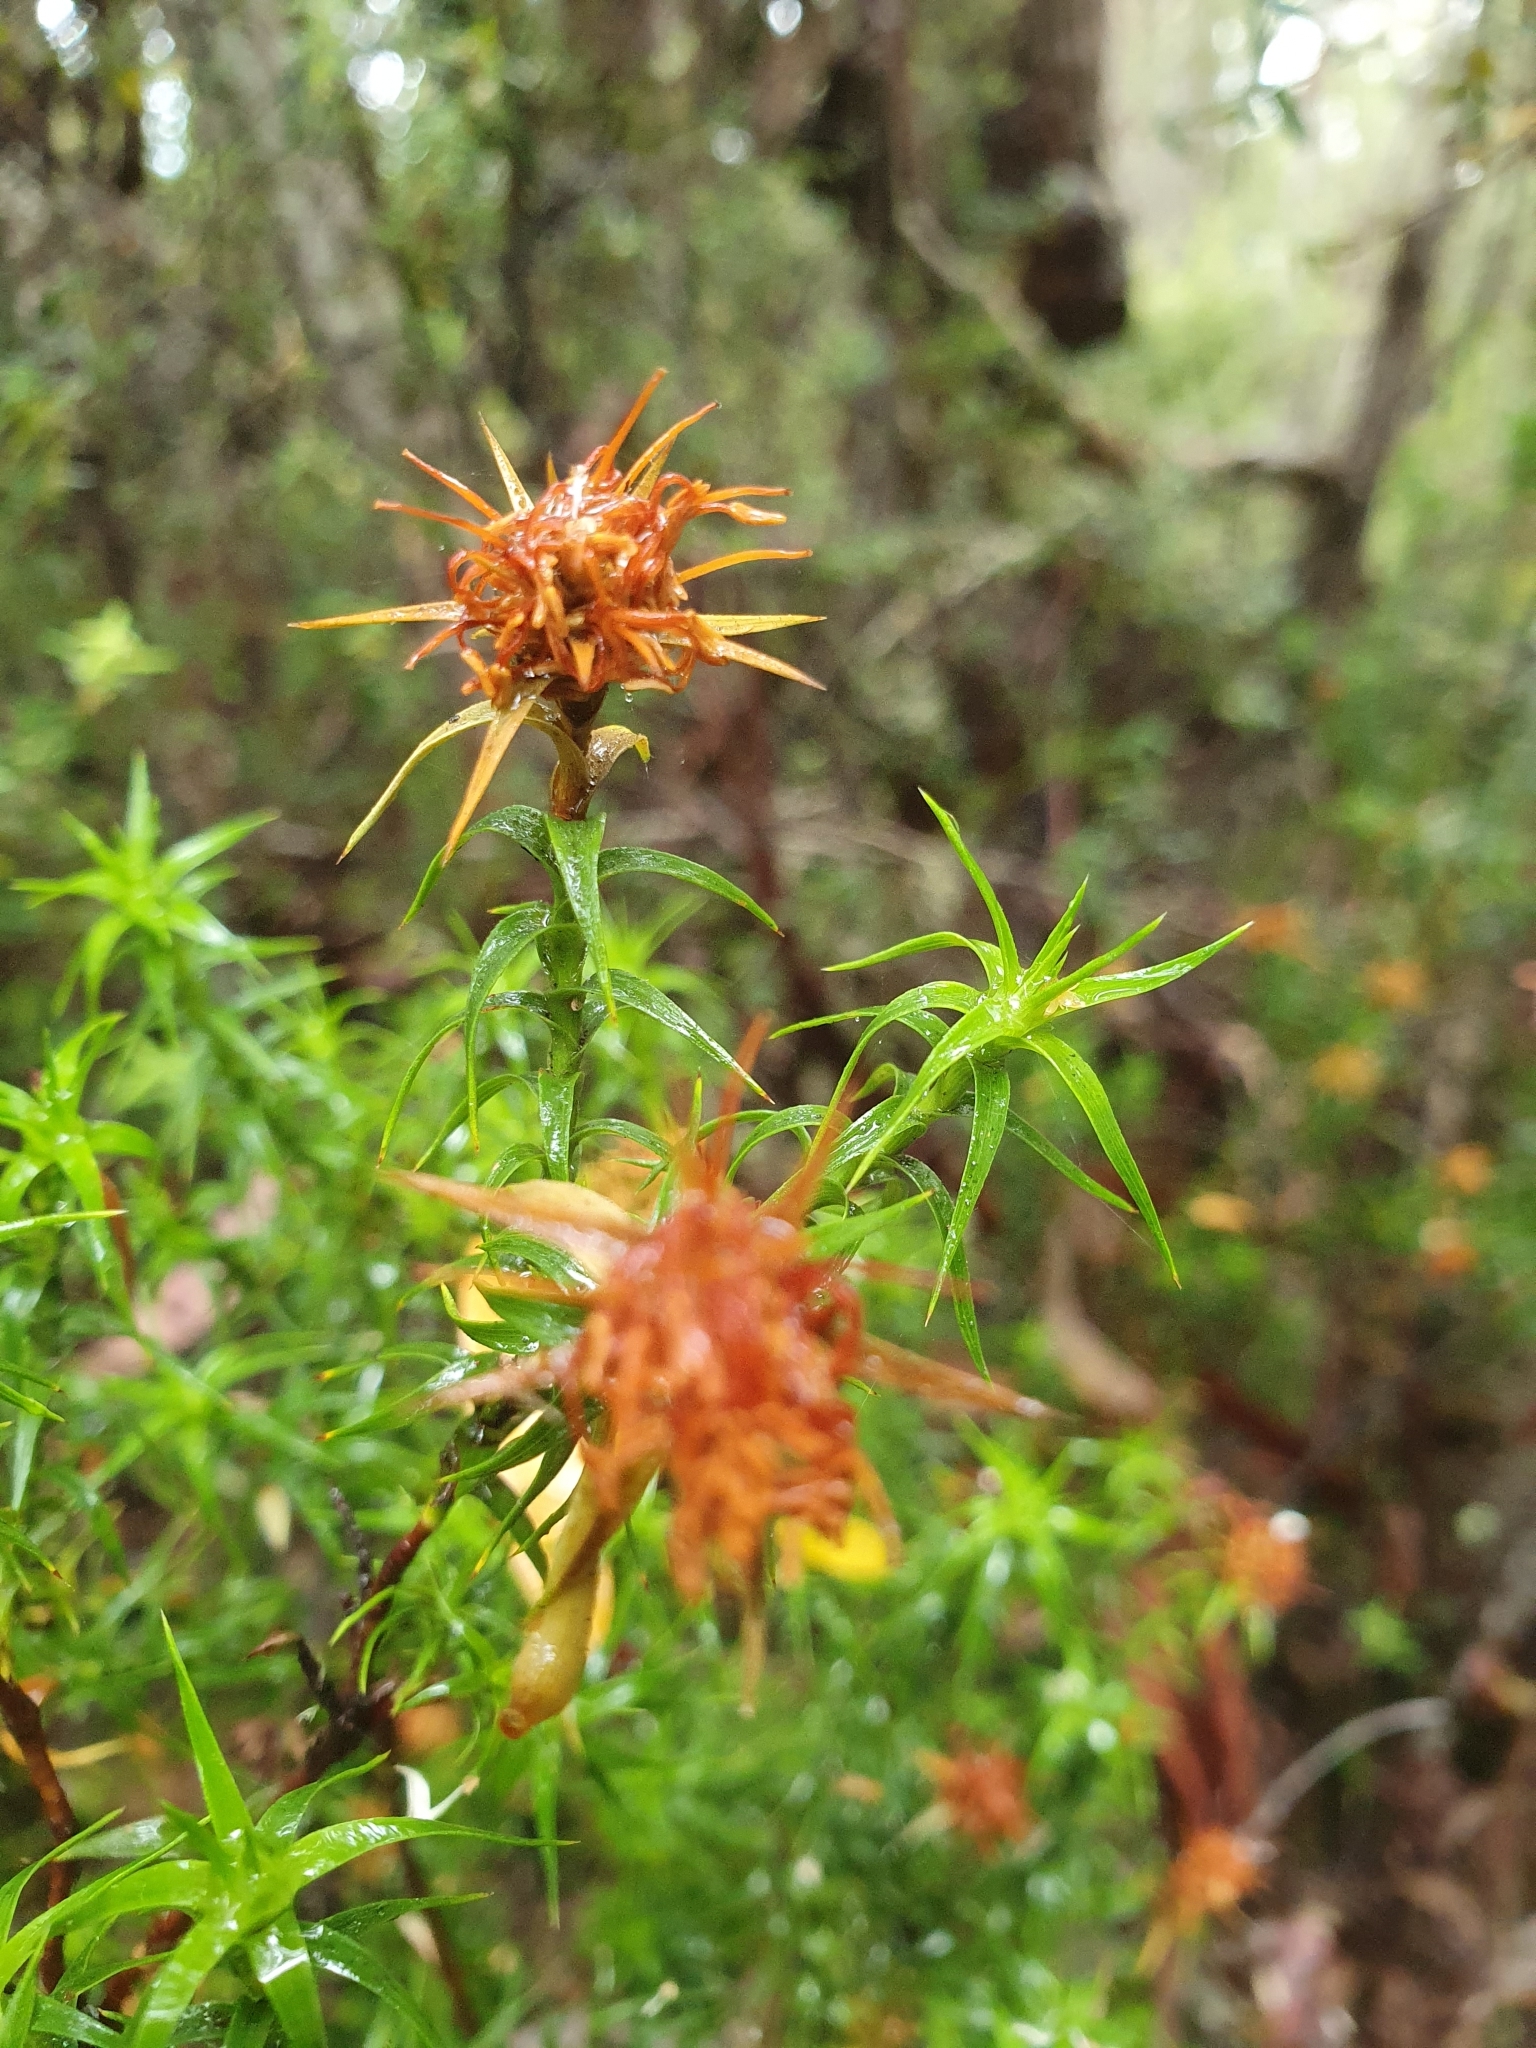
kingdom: Plantae
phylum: Tracheophyta
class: Magnoliopsida
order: Ericales
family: Ericaceae
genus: Dracophyllum
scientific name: Dracophyllum procerum
